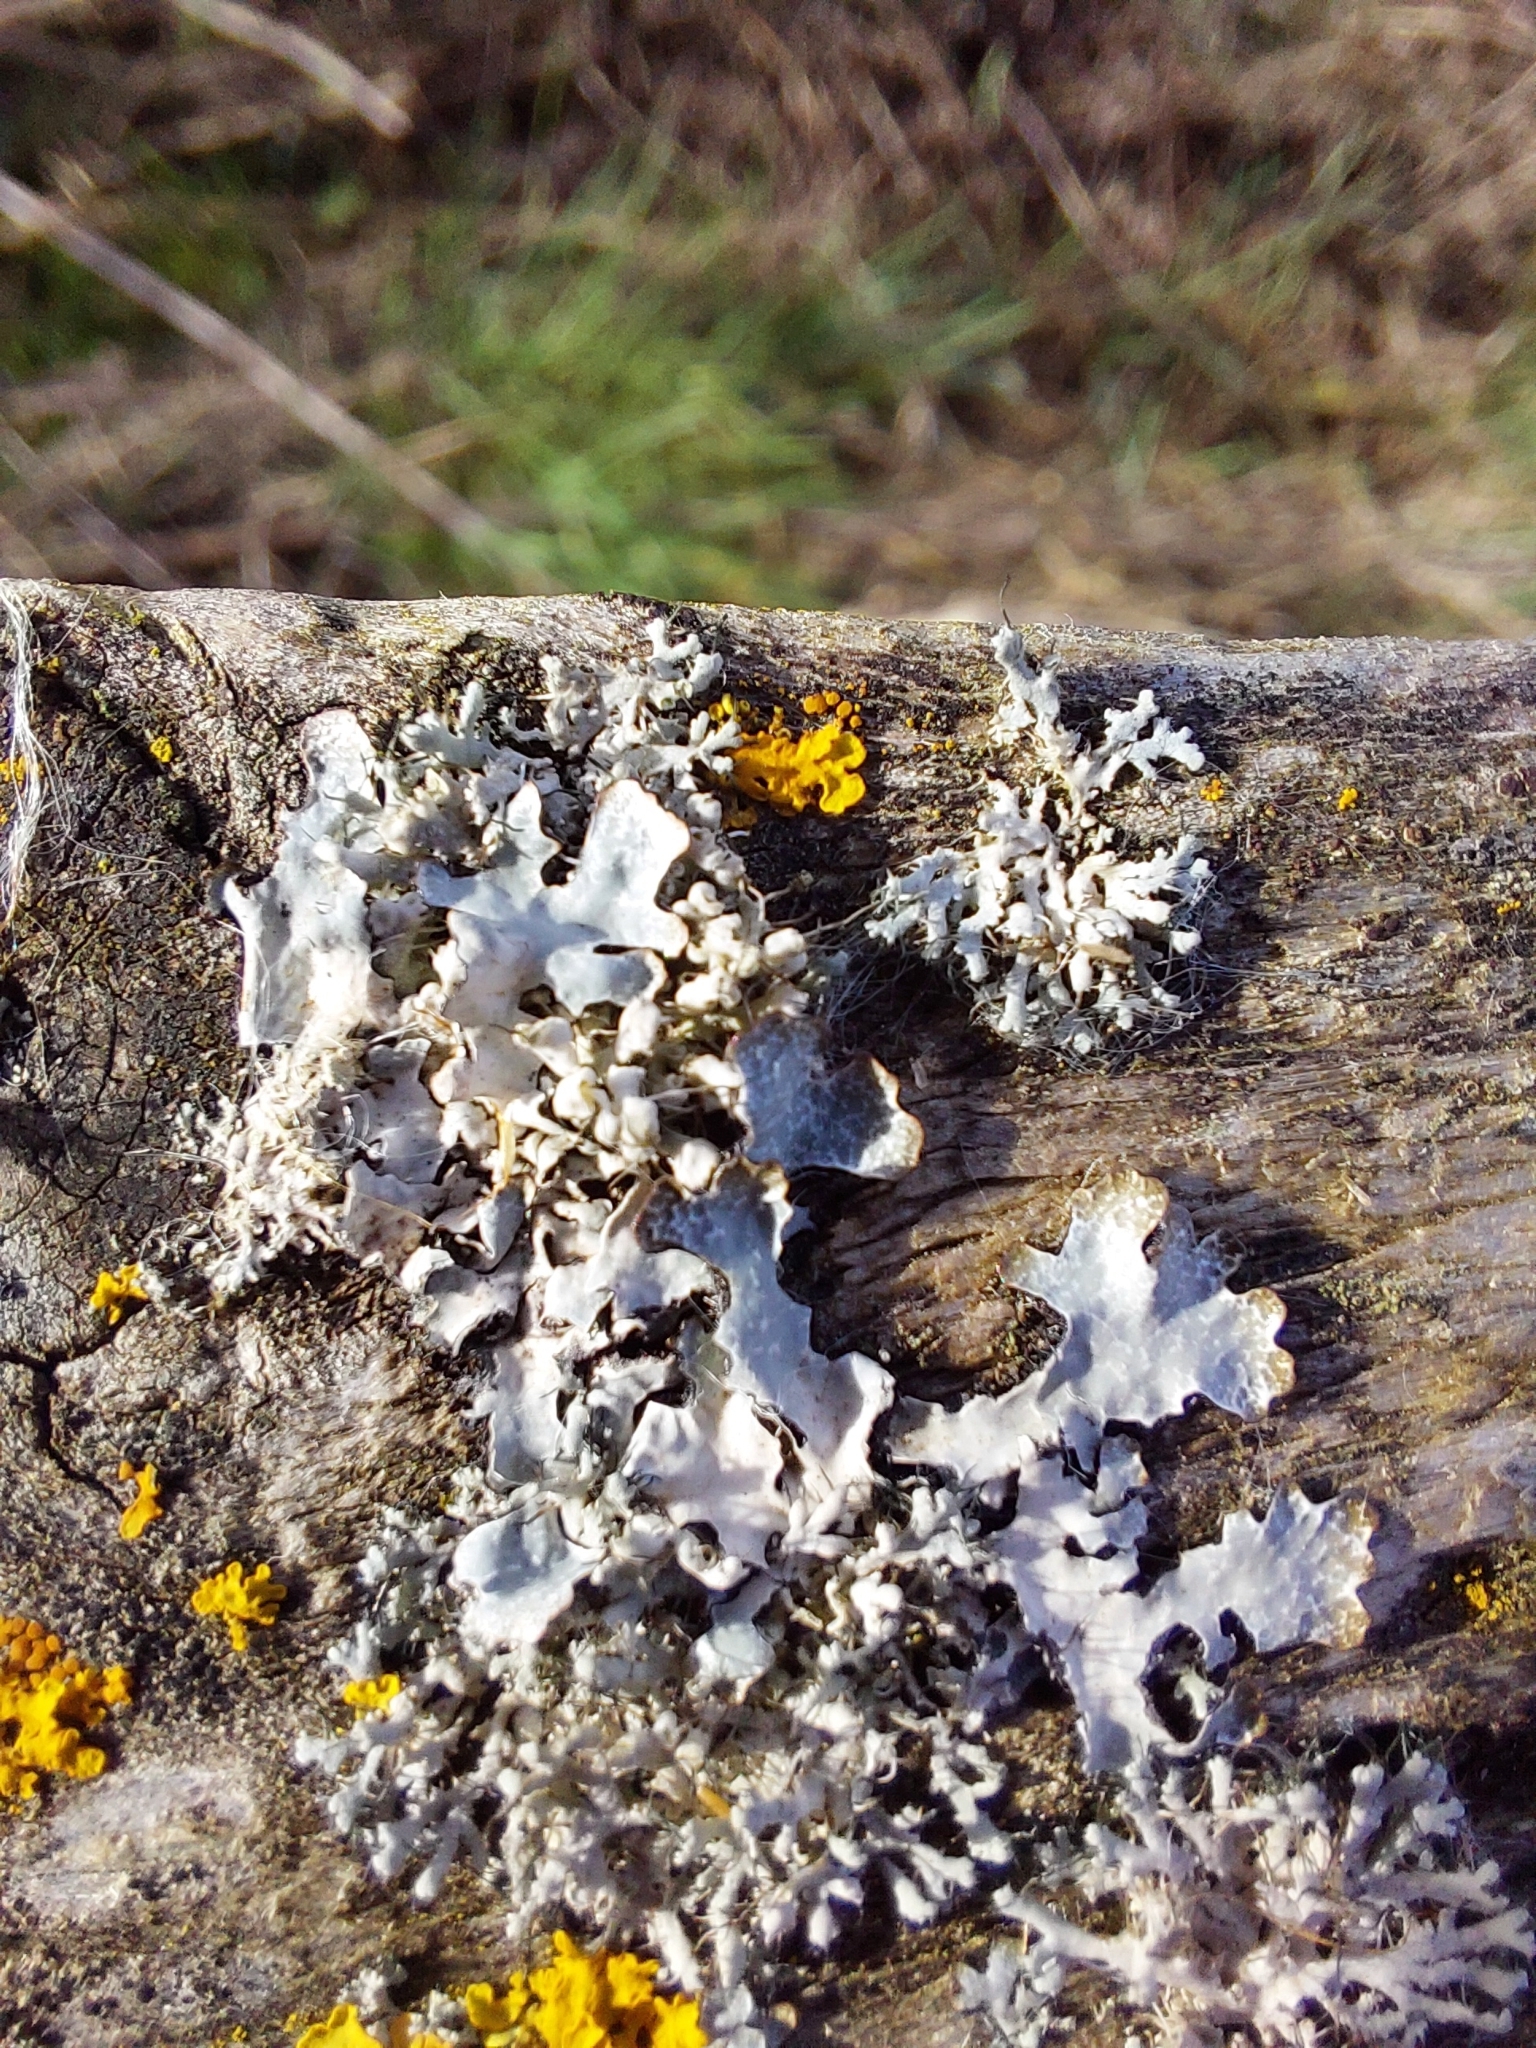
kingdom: Fungi
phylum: Ascomycota
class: Lecanoromycetes
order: Lecanorales
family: Parmeliaceae
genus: Parmelia
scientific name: Parmelia sulcata
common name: Netted shield lichen
